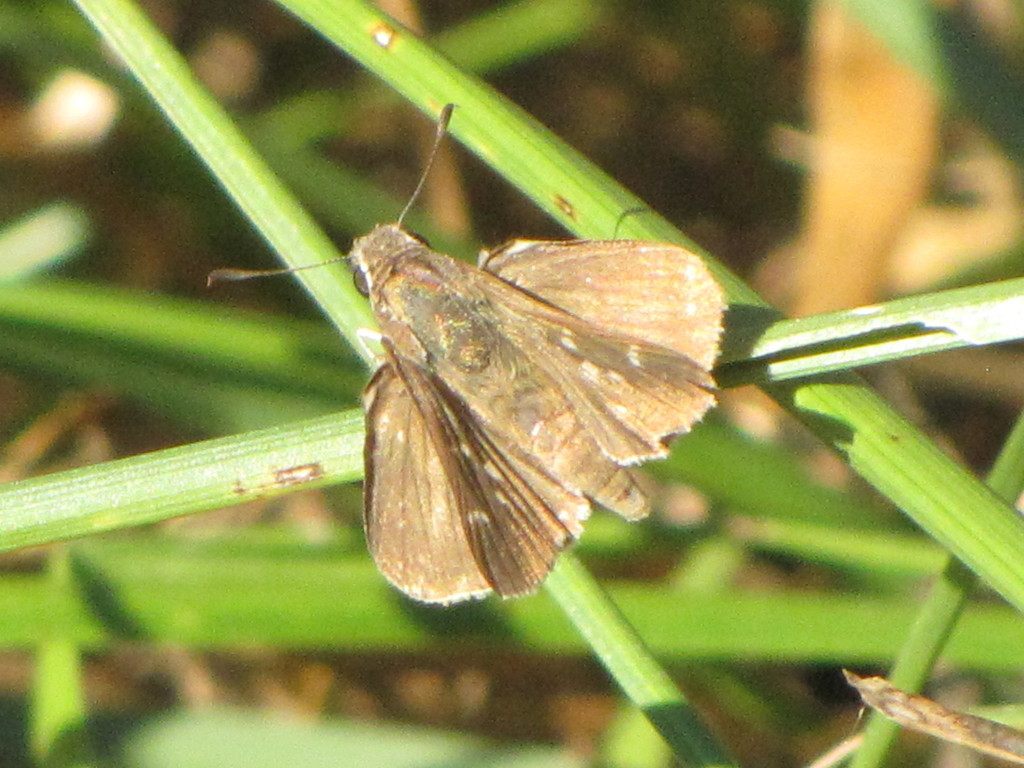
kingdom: Animalia
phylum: Arthropoda
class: Insecta
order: Lepidoptera
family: Hesperiidae
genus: Lerodea
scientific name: Lerodea eufala
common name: Eufala skipper
